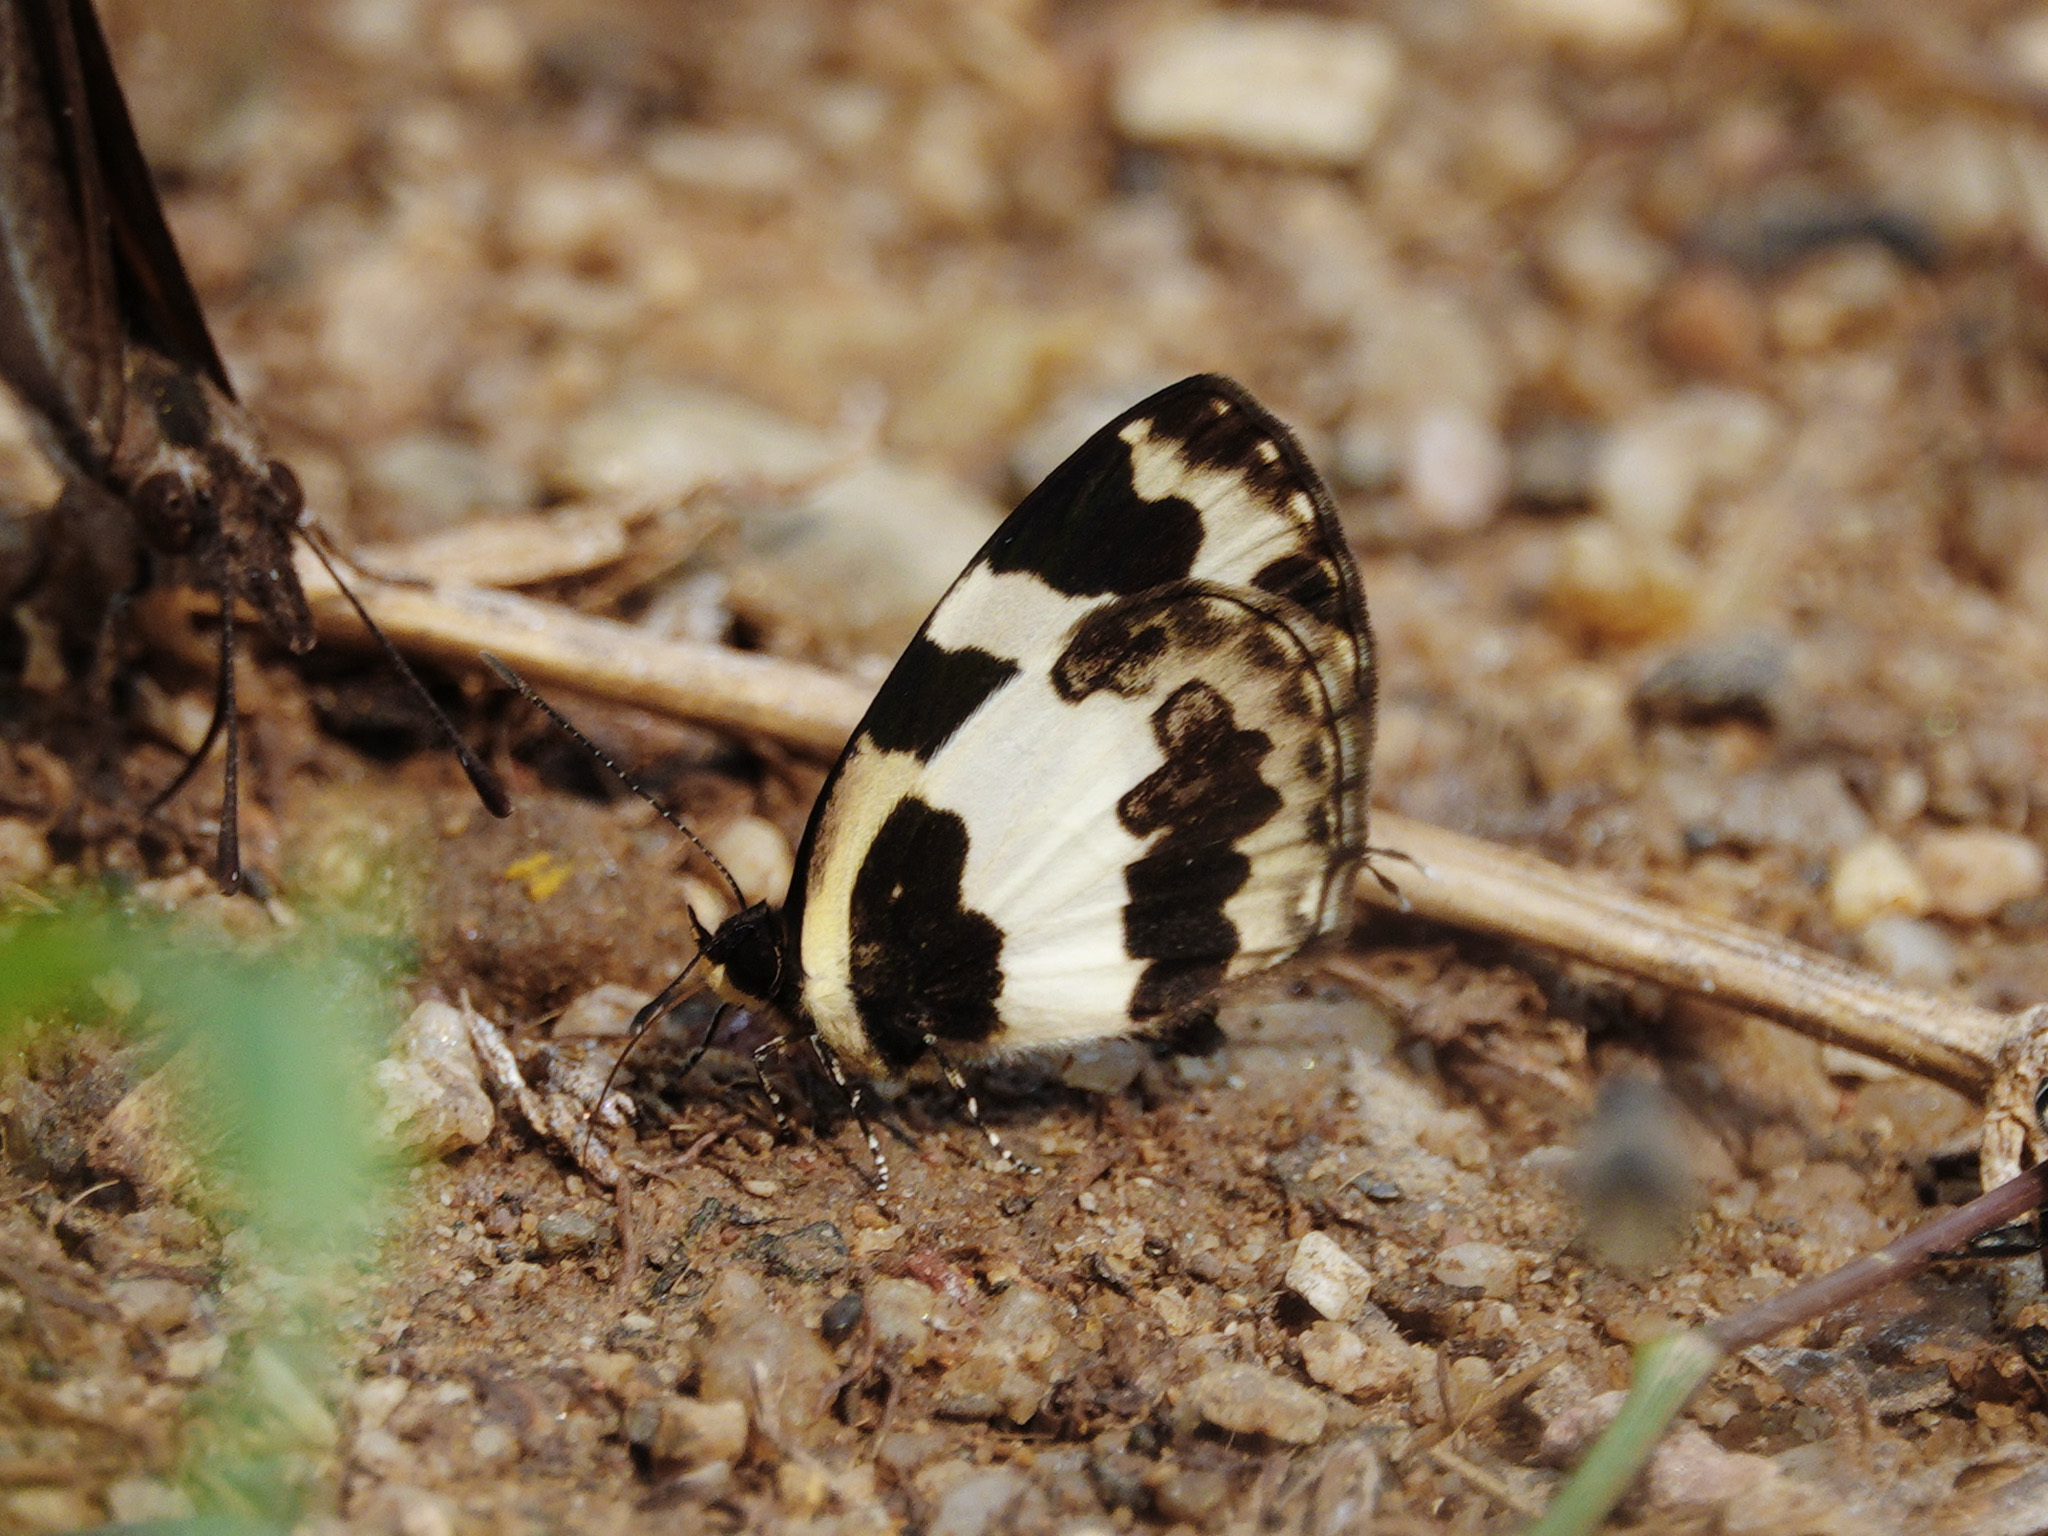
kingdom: Animalia
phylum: Arthropoda
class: Insecta
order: Lepidoptera
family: Lycaenidae
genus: Caleta
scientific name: Caleta elna
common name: Elbowed pierrot
